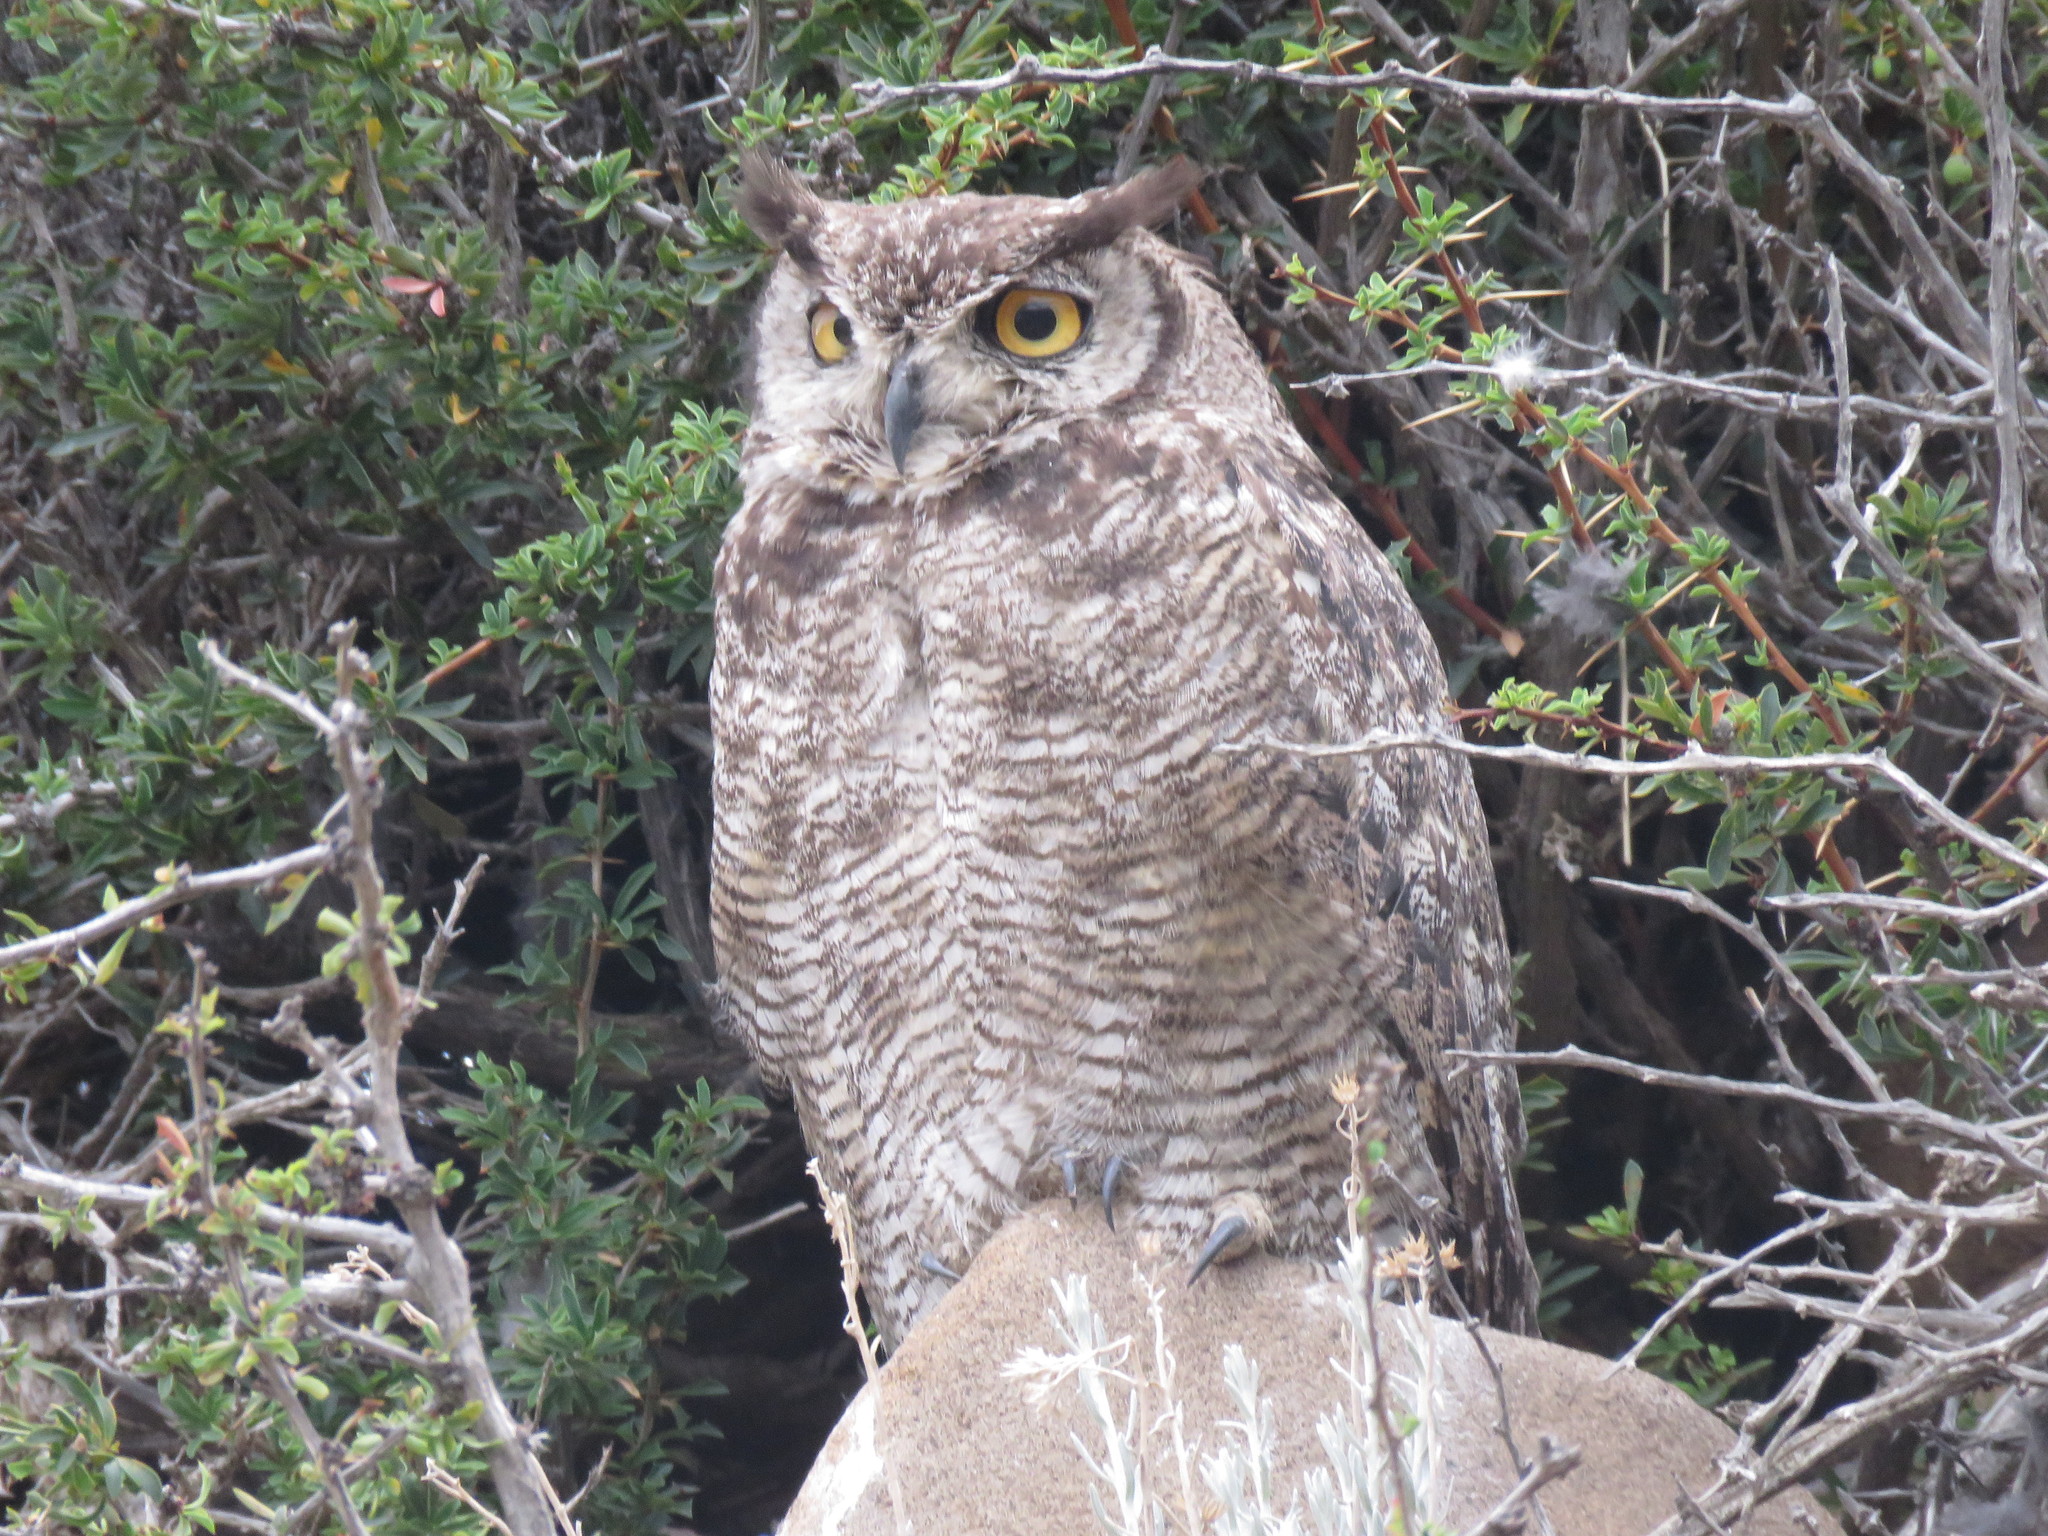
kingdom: Animalia
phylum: Chordata
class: Aves
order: Strigiformes
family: Strigidae
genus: Bubo
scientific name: Bubo magellanicus
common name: Lesser horned owl
